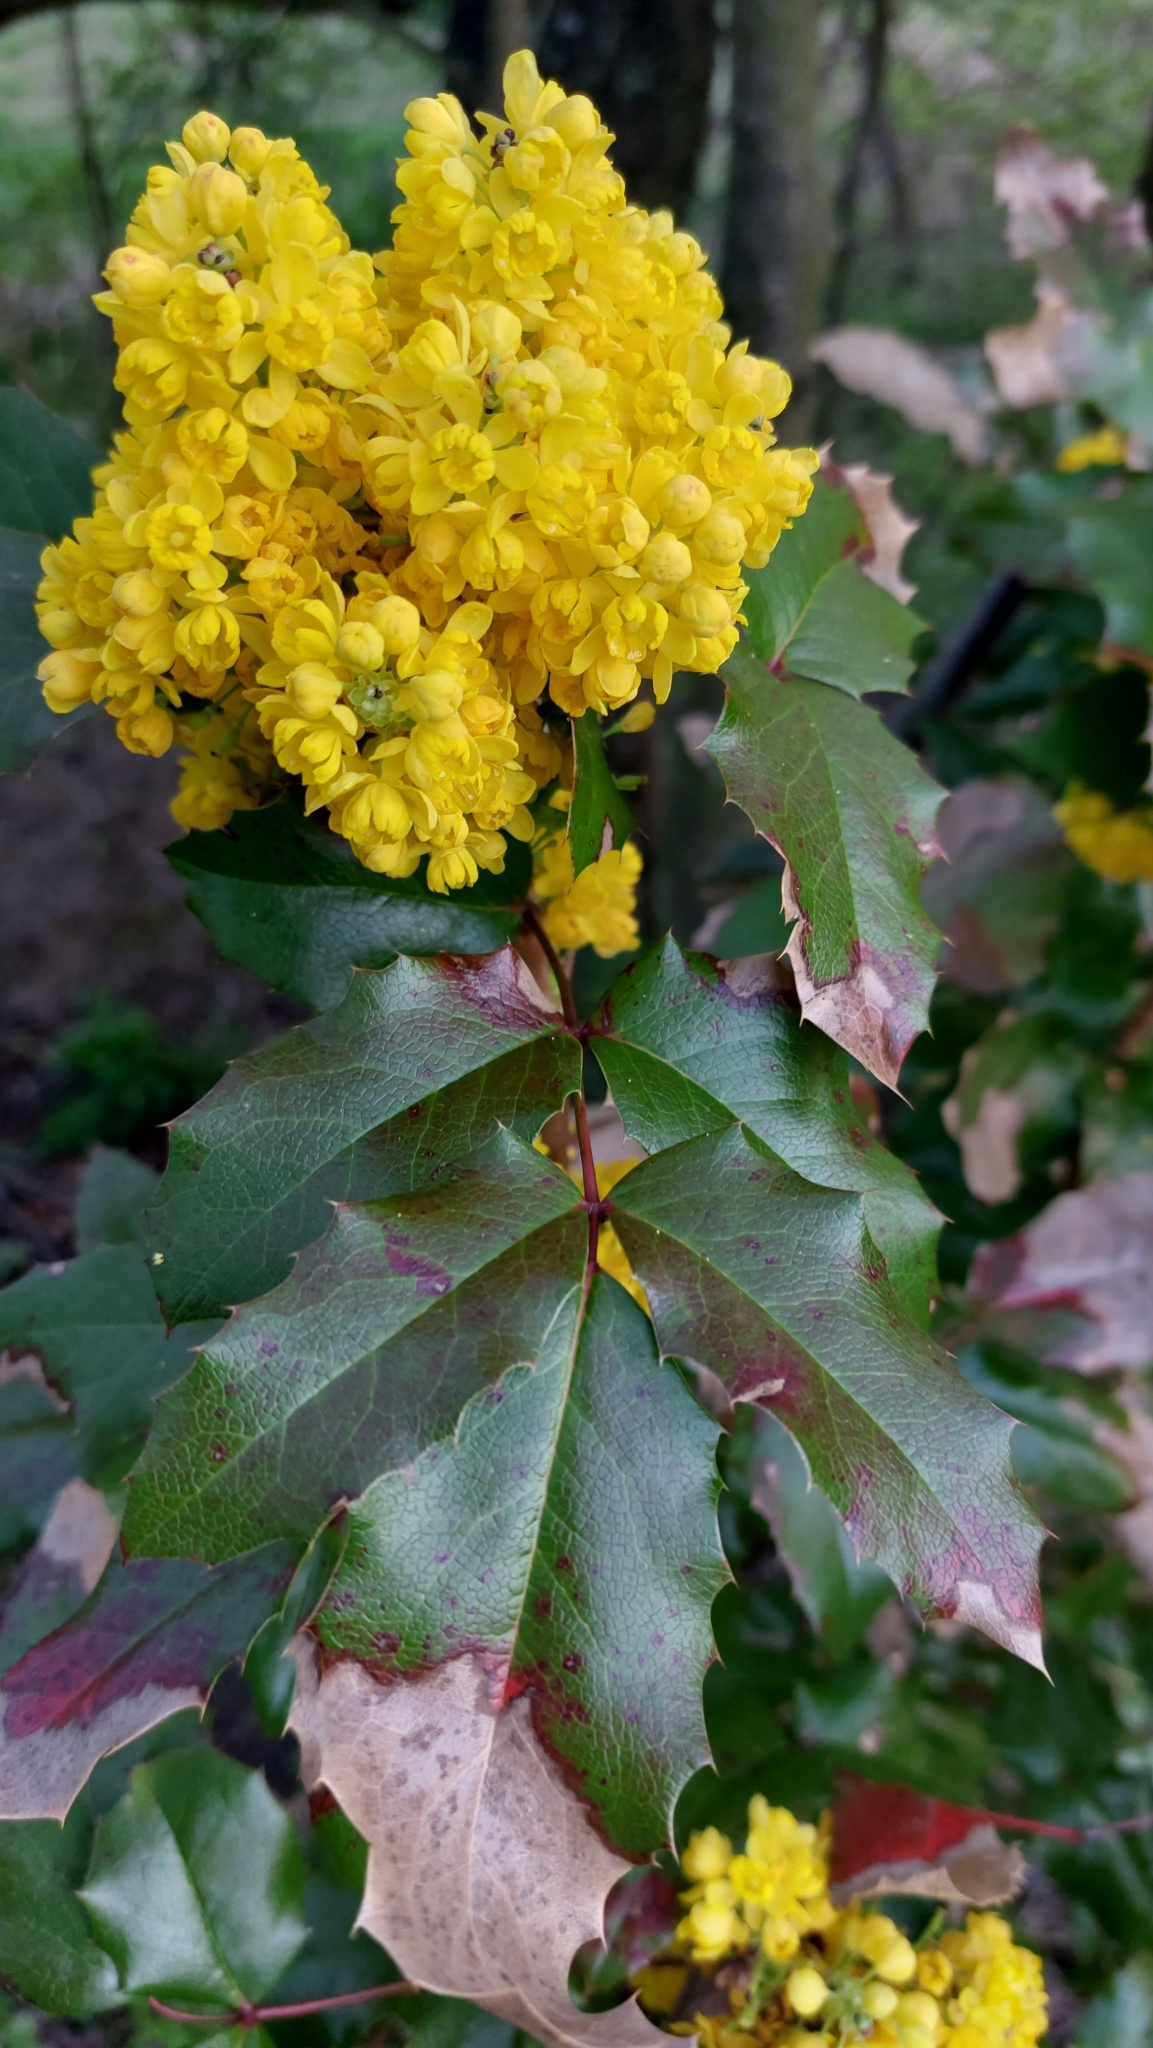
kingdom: Plantae
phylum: Tracheophyta
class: Magnoliopsida
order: Ranunculales
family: Berberidaceae
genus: Mahonia
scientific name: Mahonia aquifolium
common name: Oregon-grape
